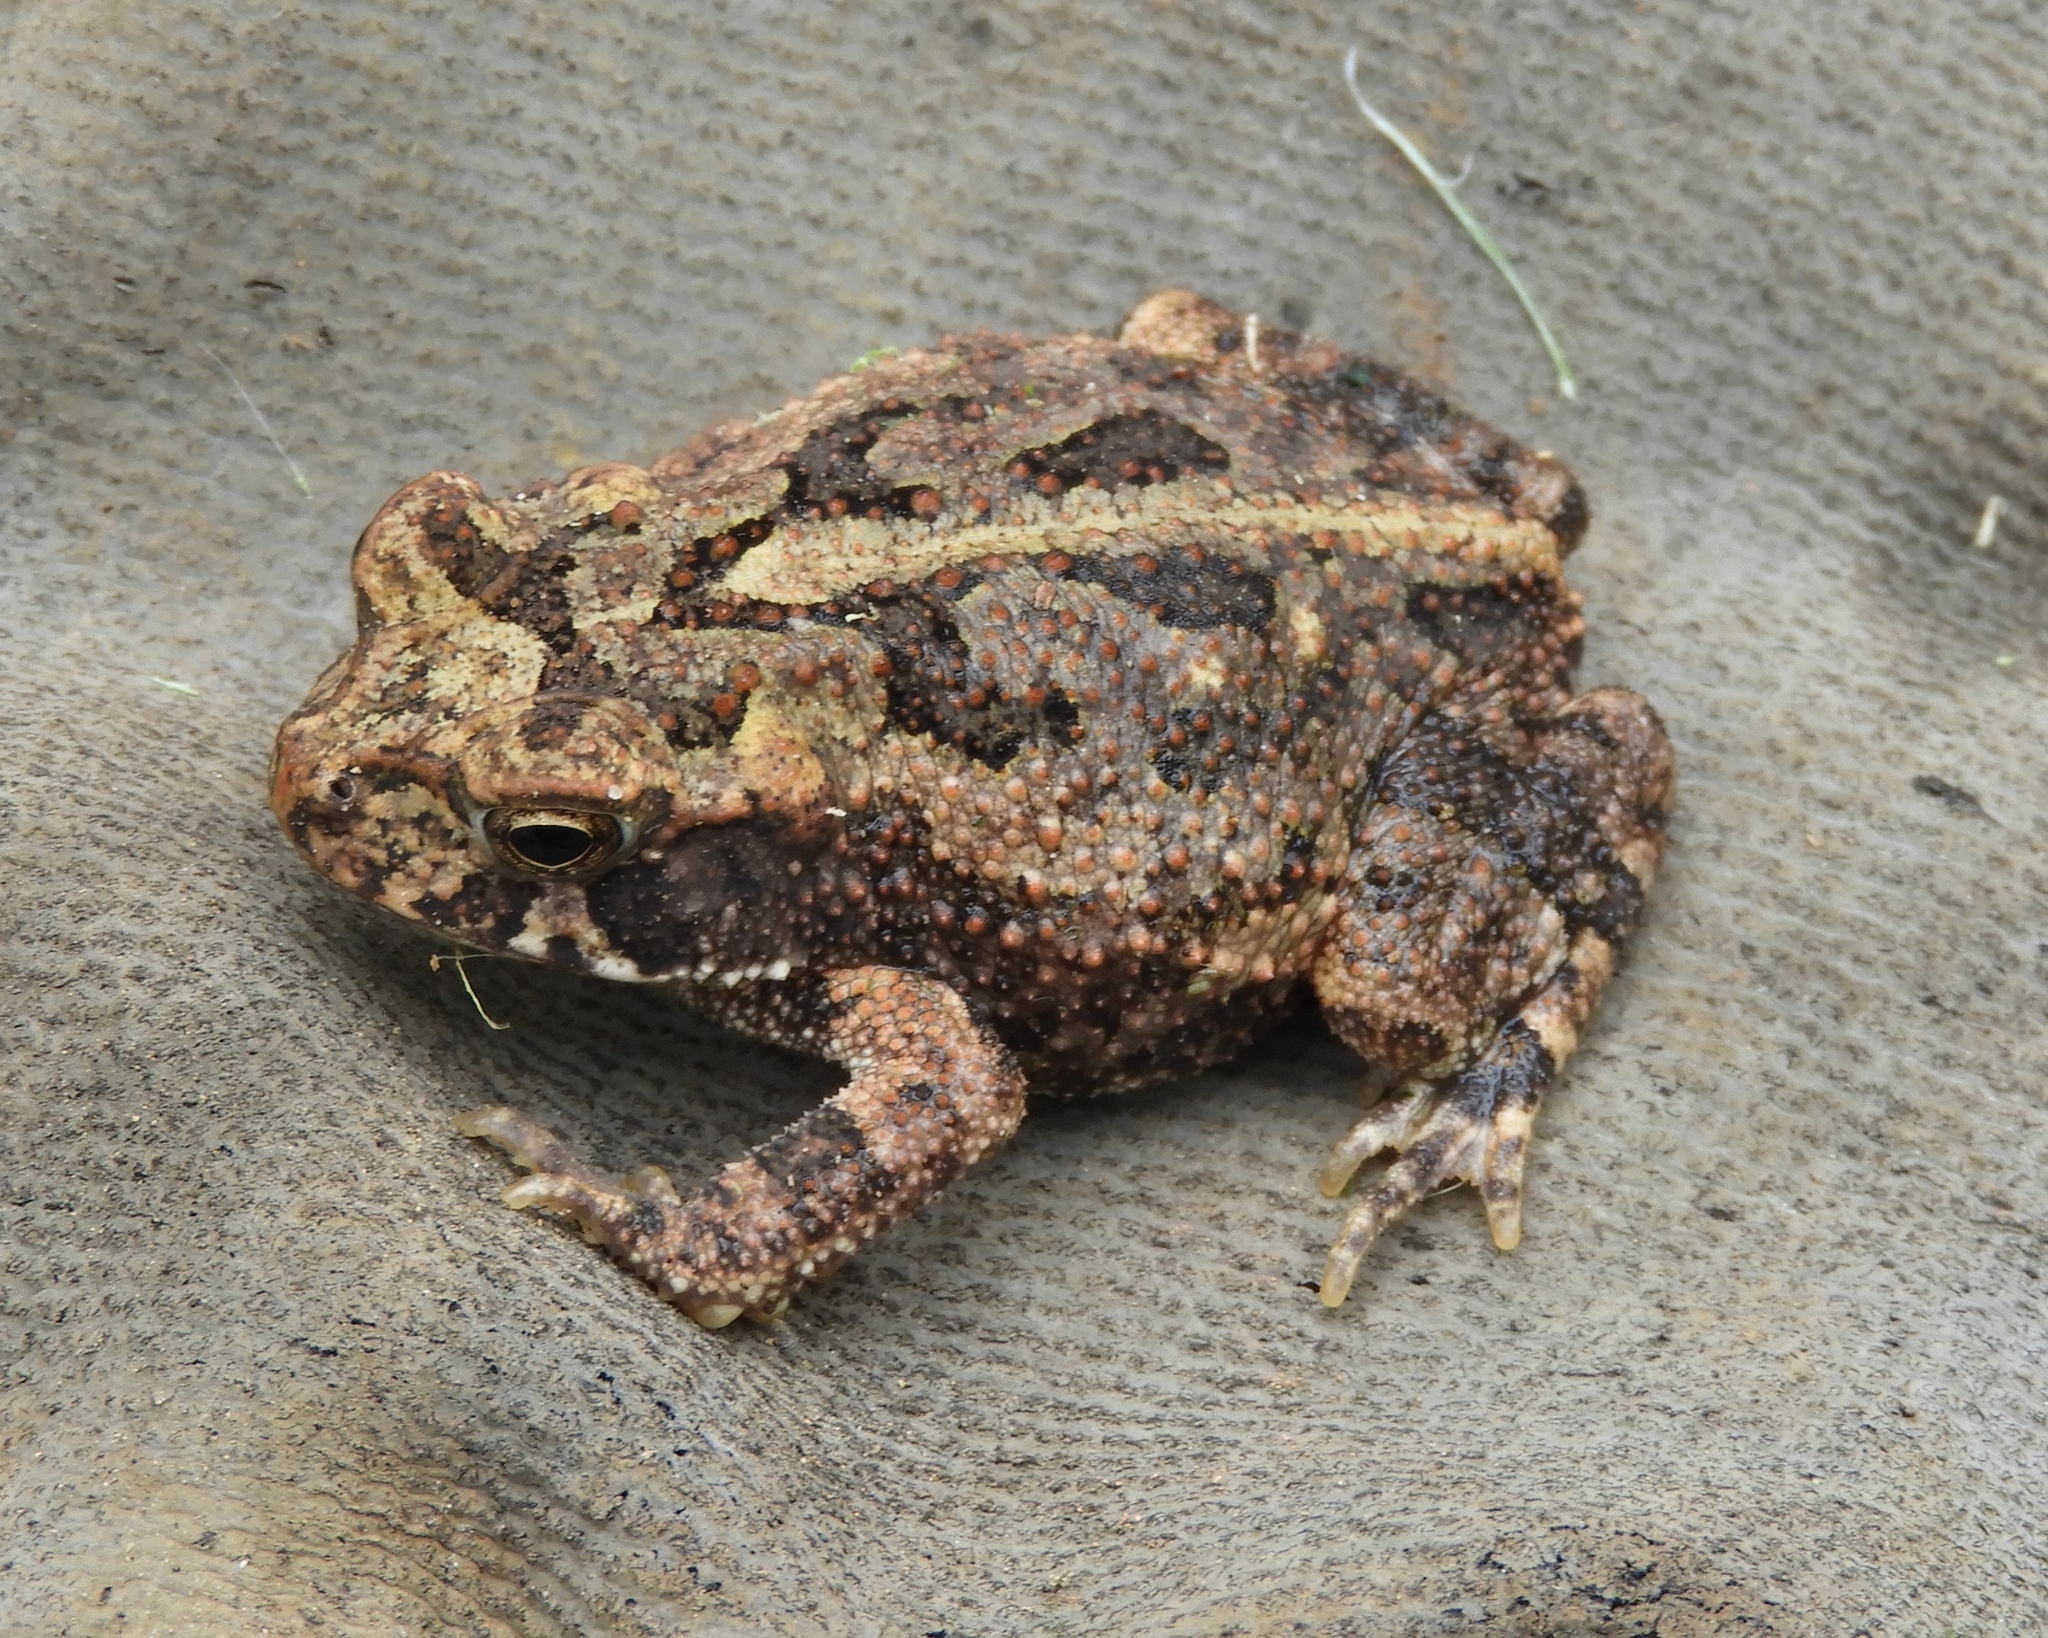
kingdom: Animalia
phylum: Chordata
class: Amphibia
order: Anura
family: Bufonidae
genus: Incilius
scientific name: Incilius mazatlanensis
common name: Sinaloa toad
